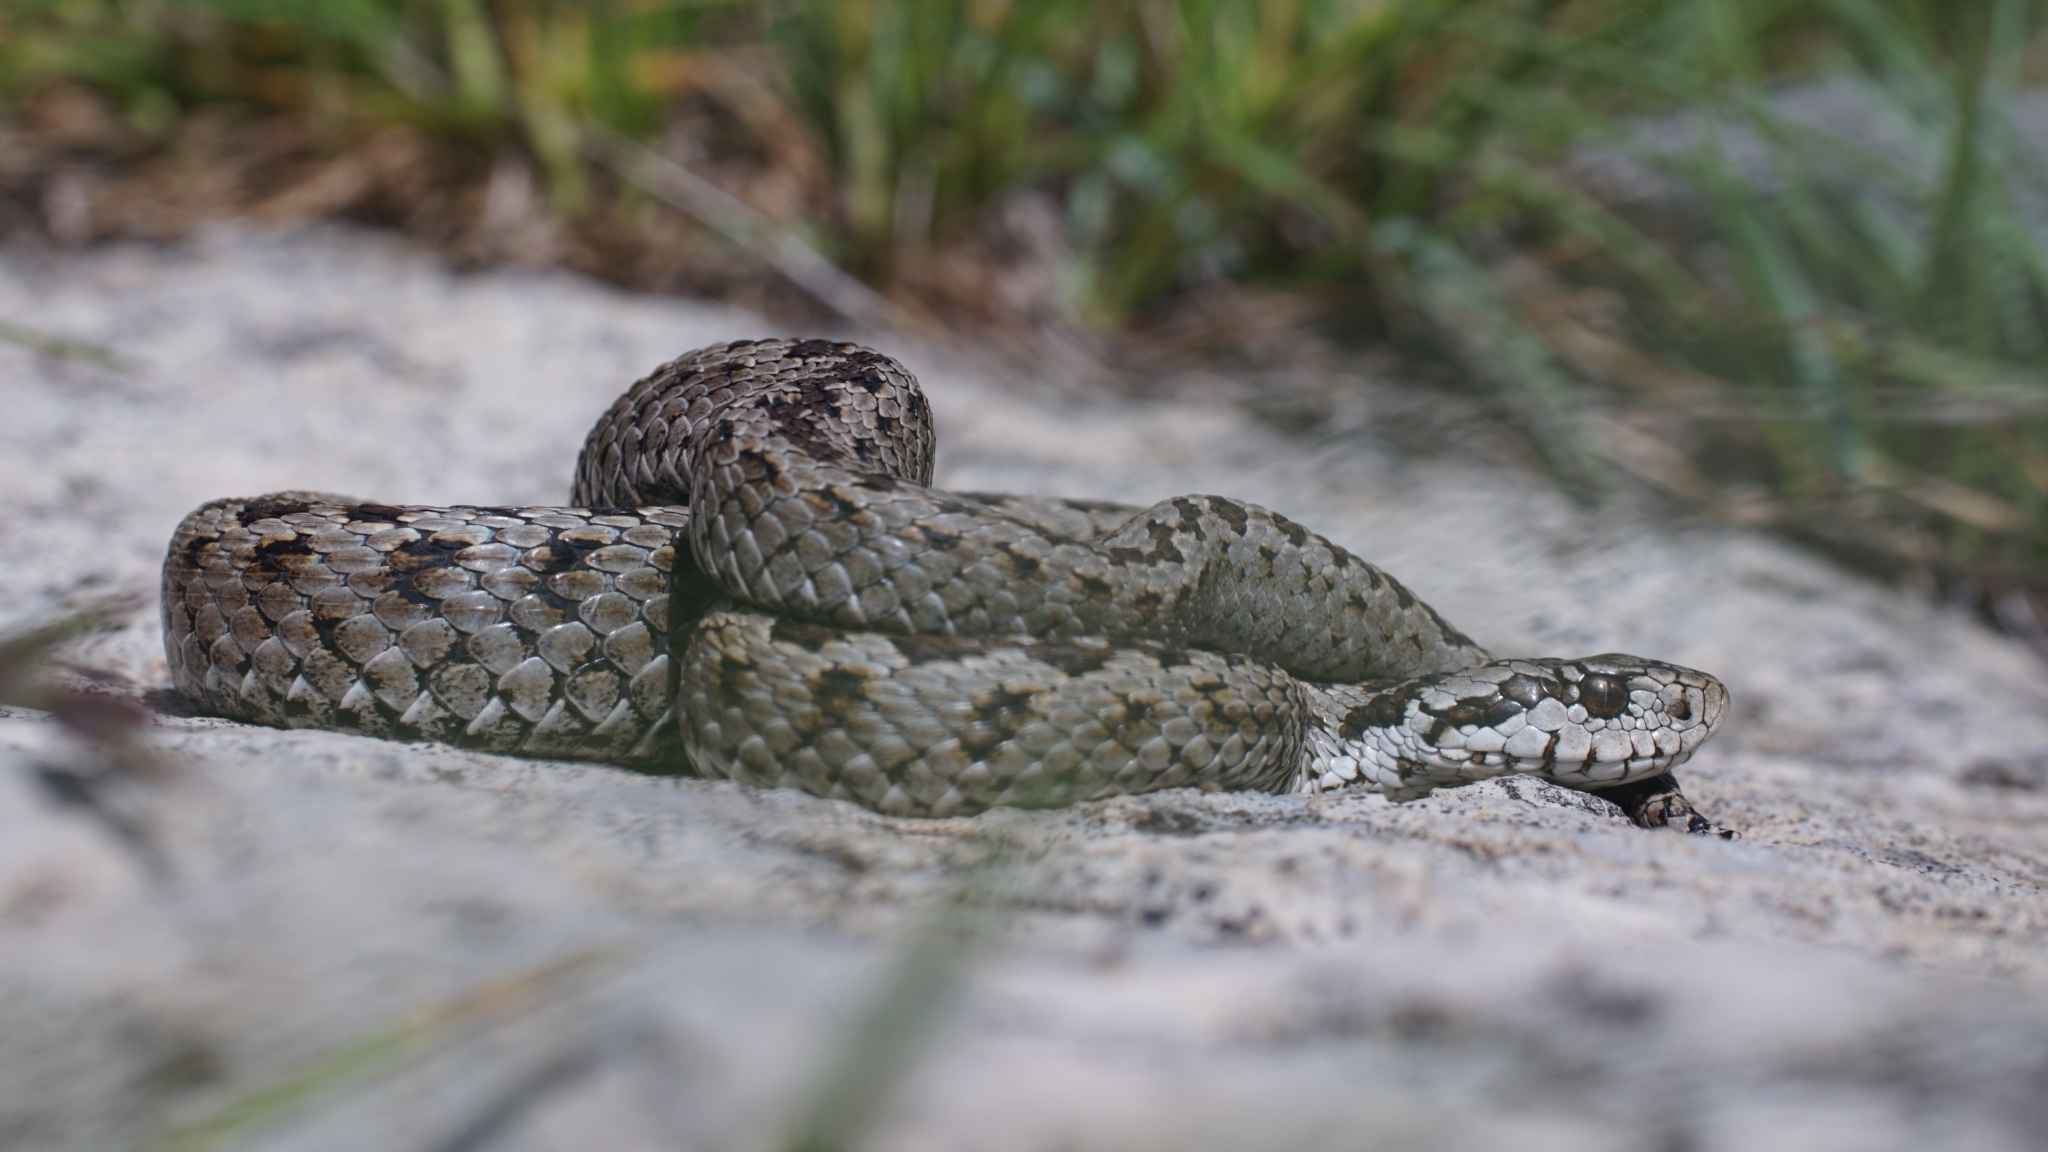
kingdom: Animalia
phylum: Chordata
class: Squamata
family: Viperidae
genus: Vipera
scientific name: Vipera ursinii
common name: Meadow viper
